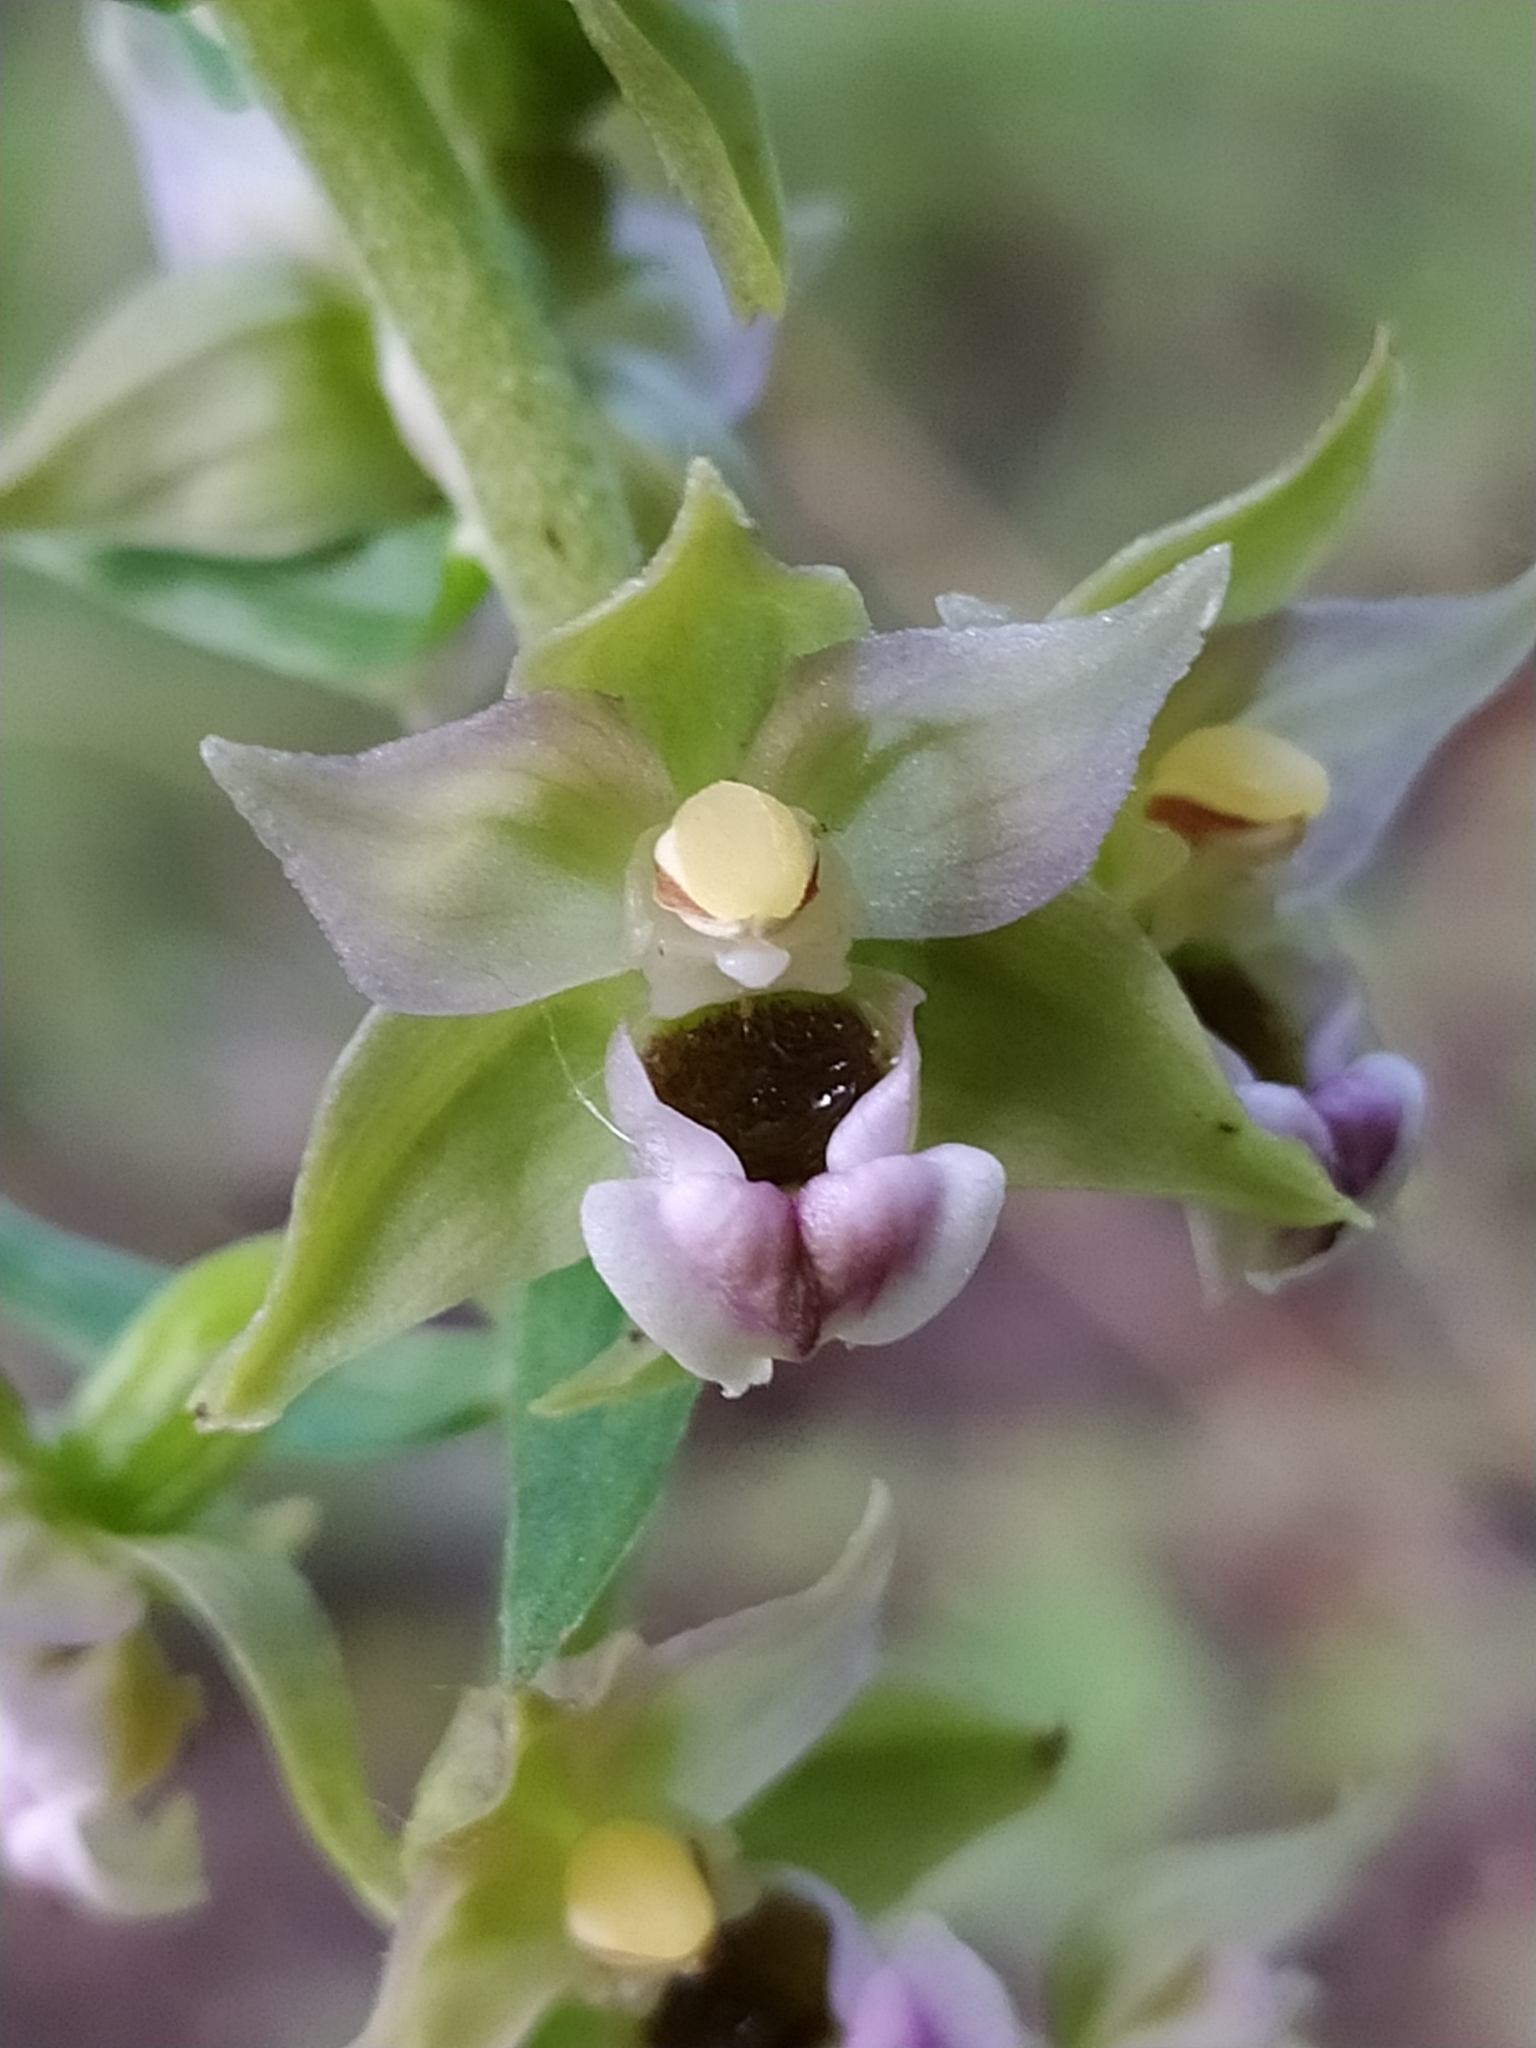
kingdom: Plantae
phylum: Tracheophyta
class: Liliopsida
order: Asparagales
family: Orchidaceae
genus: Epipactis
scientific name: Epipactis helleborine
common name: Broad-leaved helleborine
